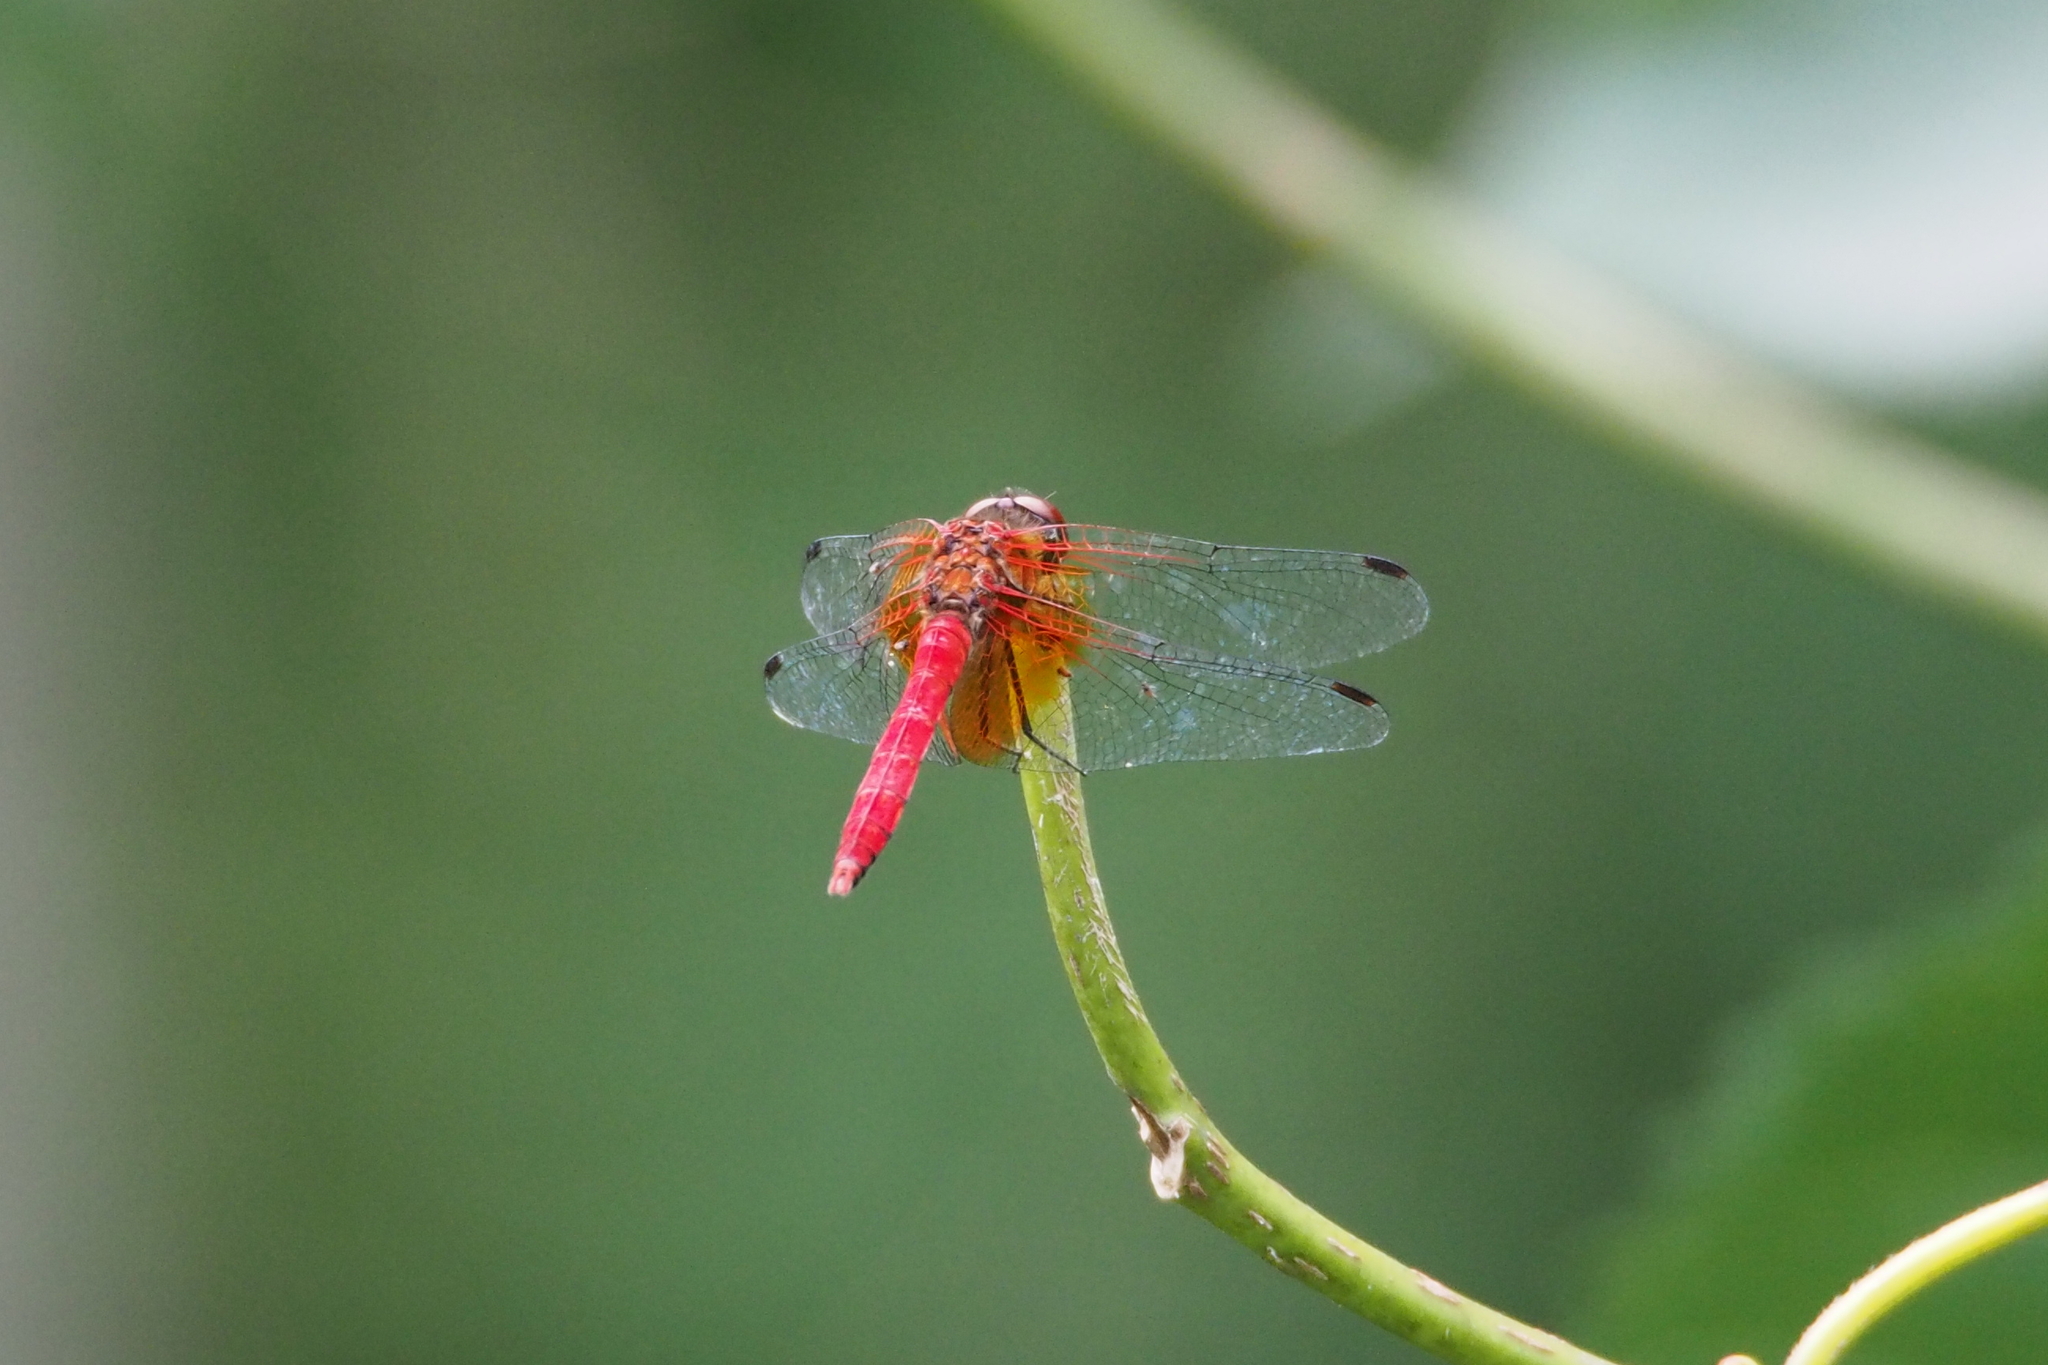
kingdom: Animalia
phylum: Arthropoda
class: Insecta
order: Odonata
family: Libellulidae
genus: Sympetrum
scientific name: Sympetrum speciosum
